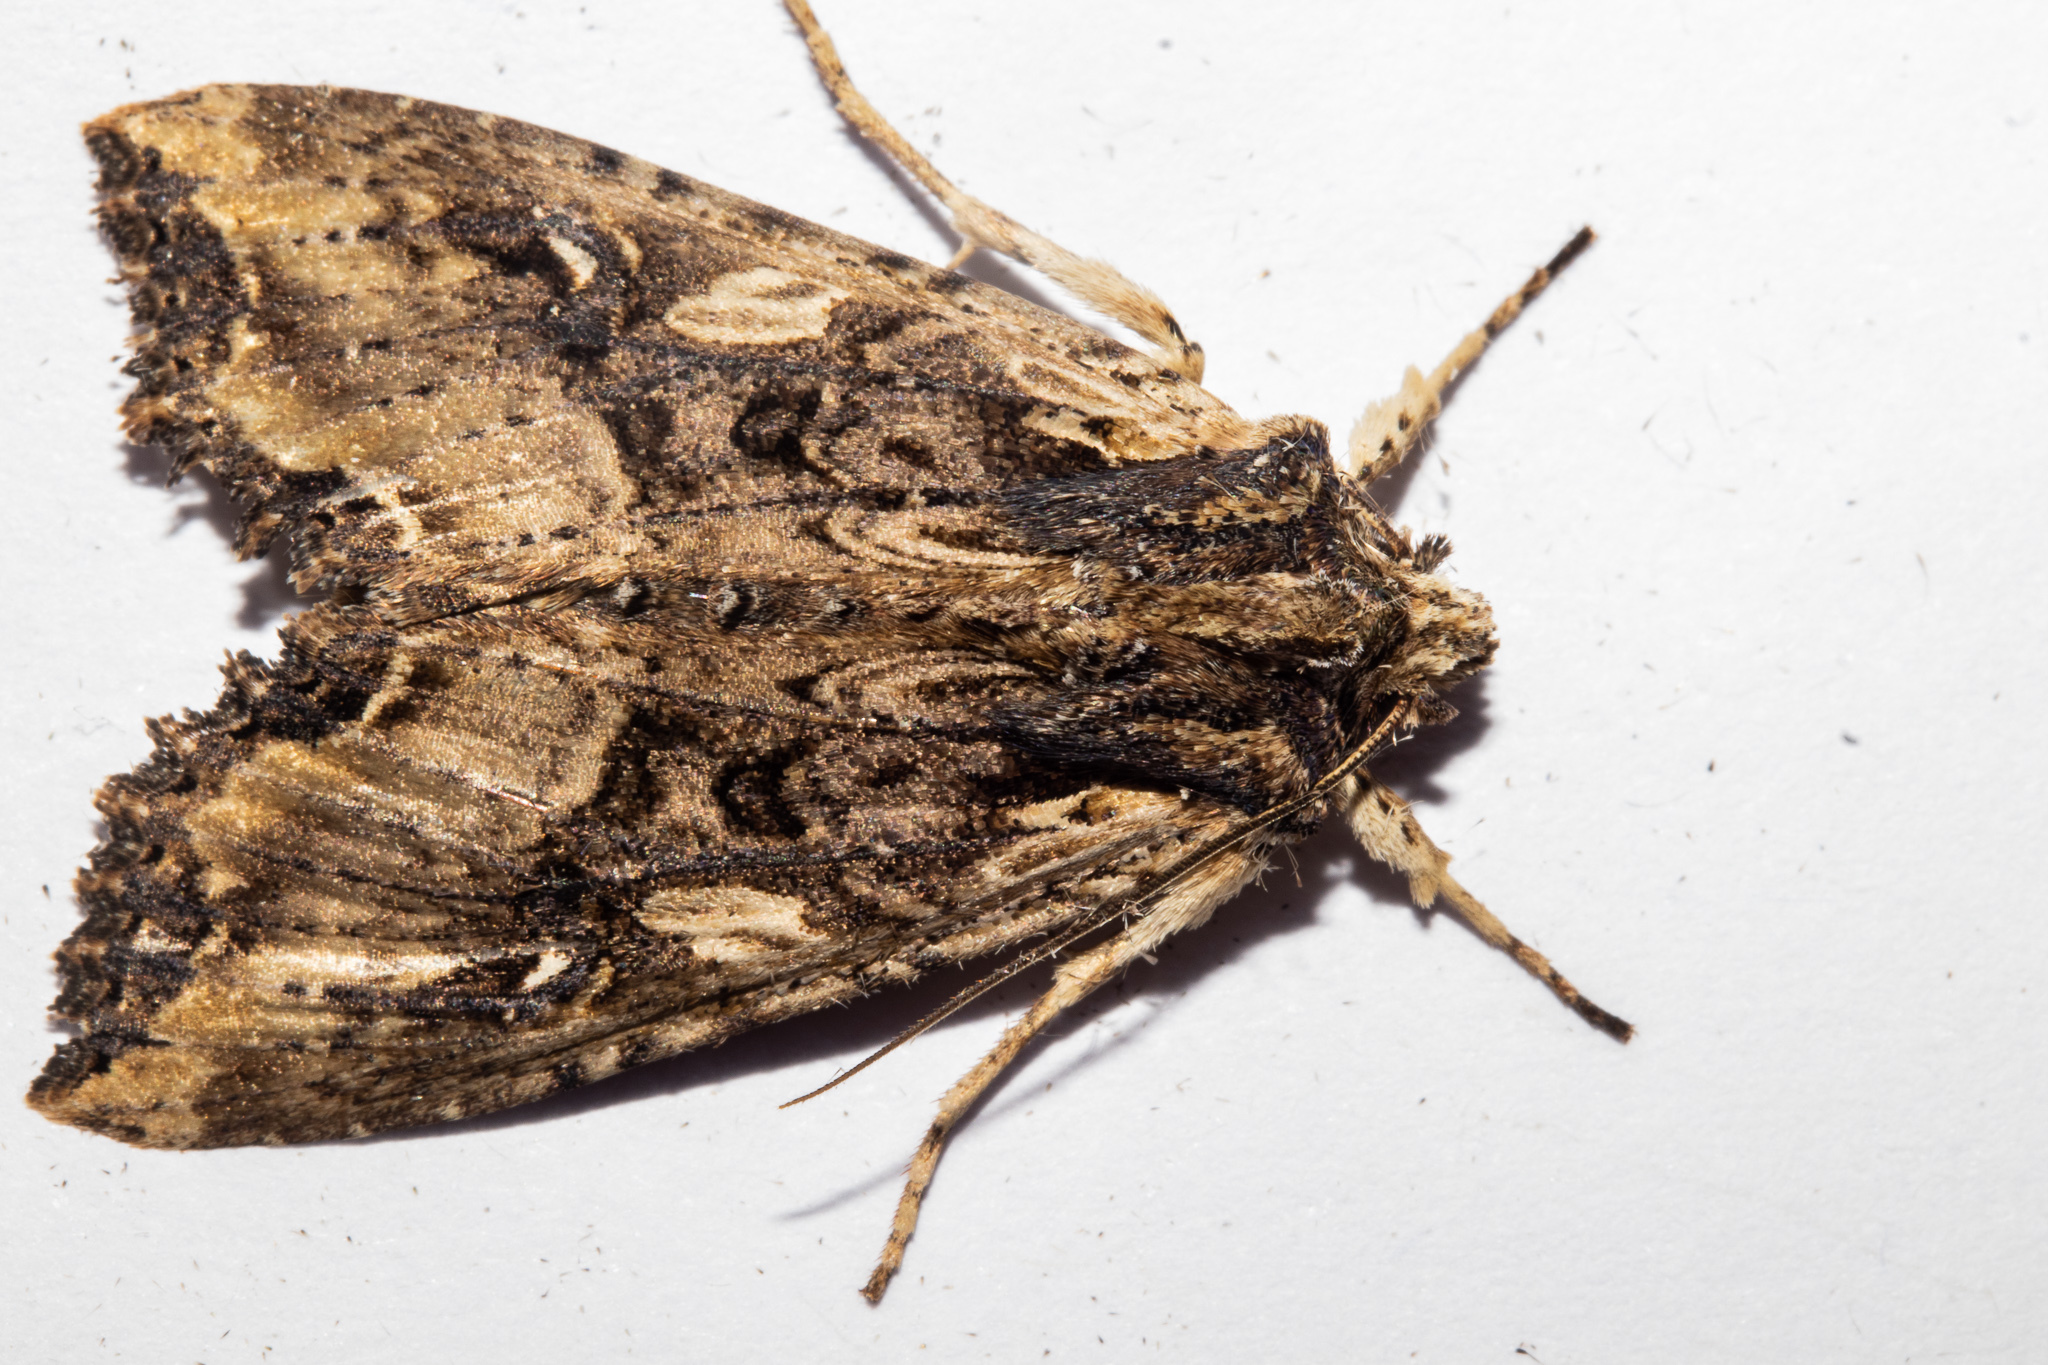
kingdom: Animalia
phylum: Arthropoda
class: Insecta
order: Lepidoptera
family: Noctuidae
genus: Meterana
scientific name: Meterana stipata
